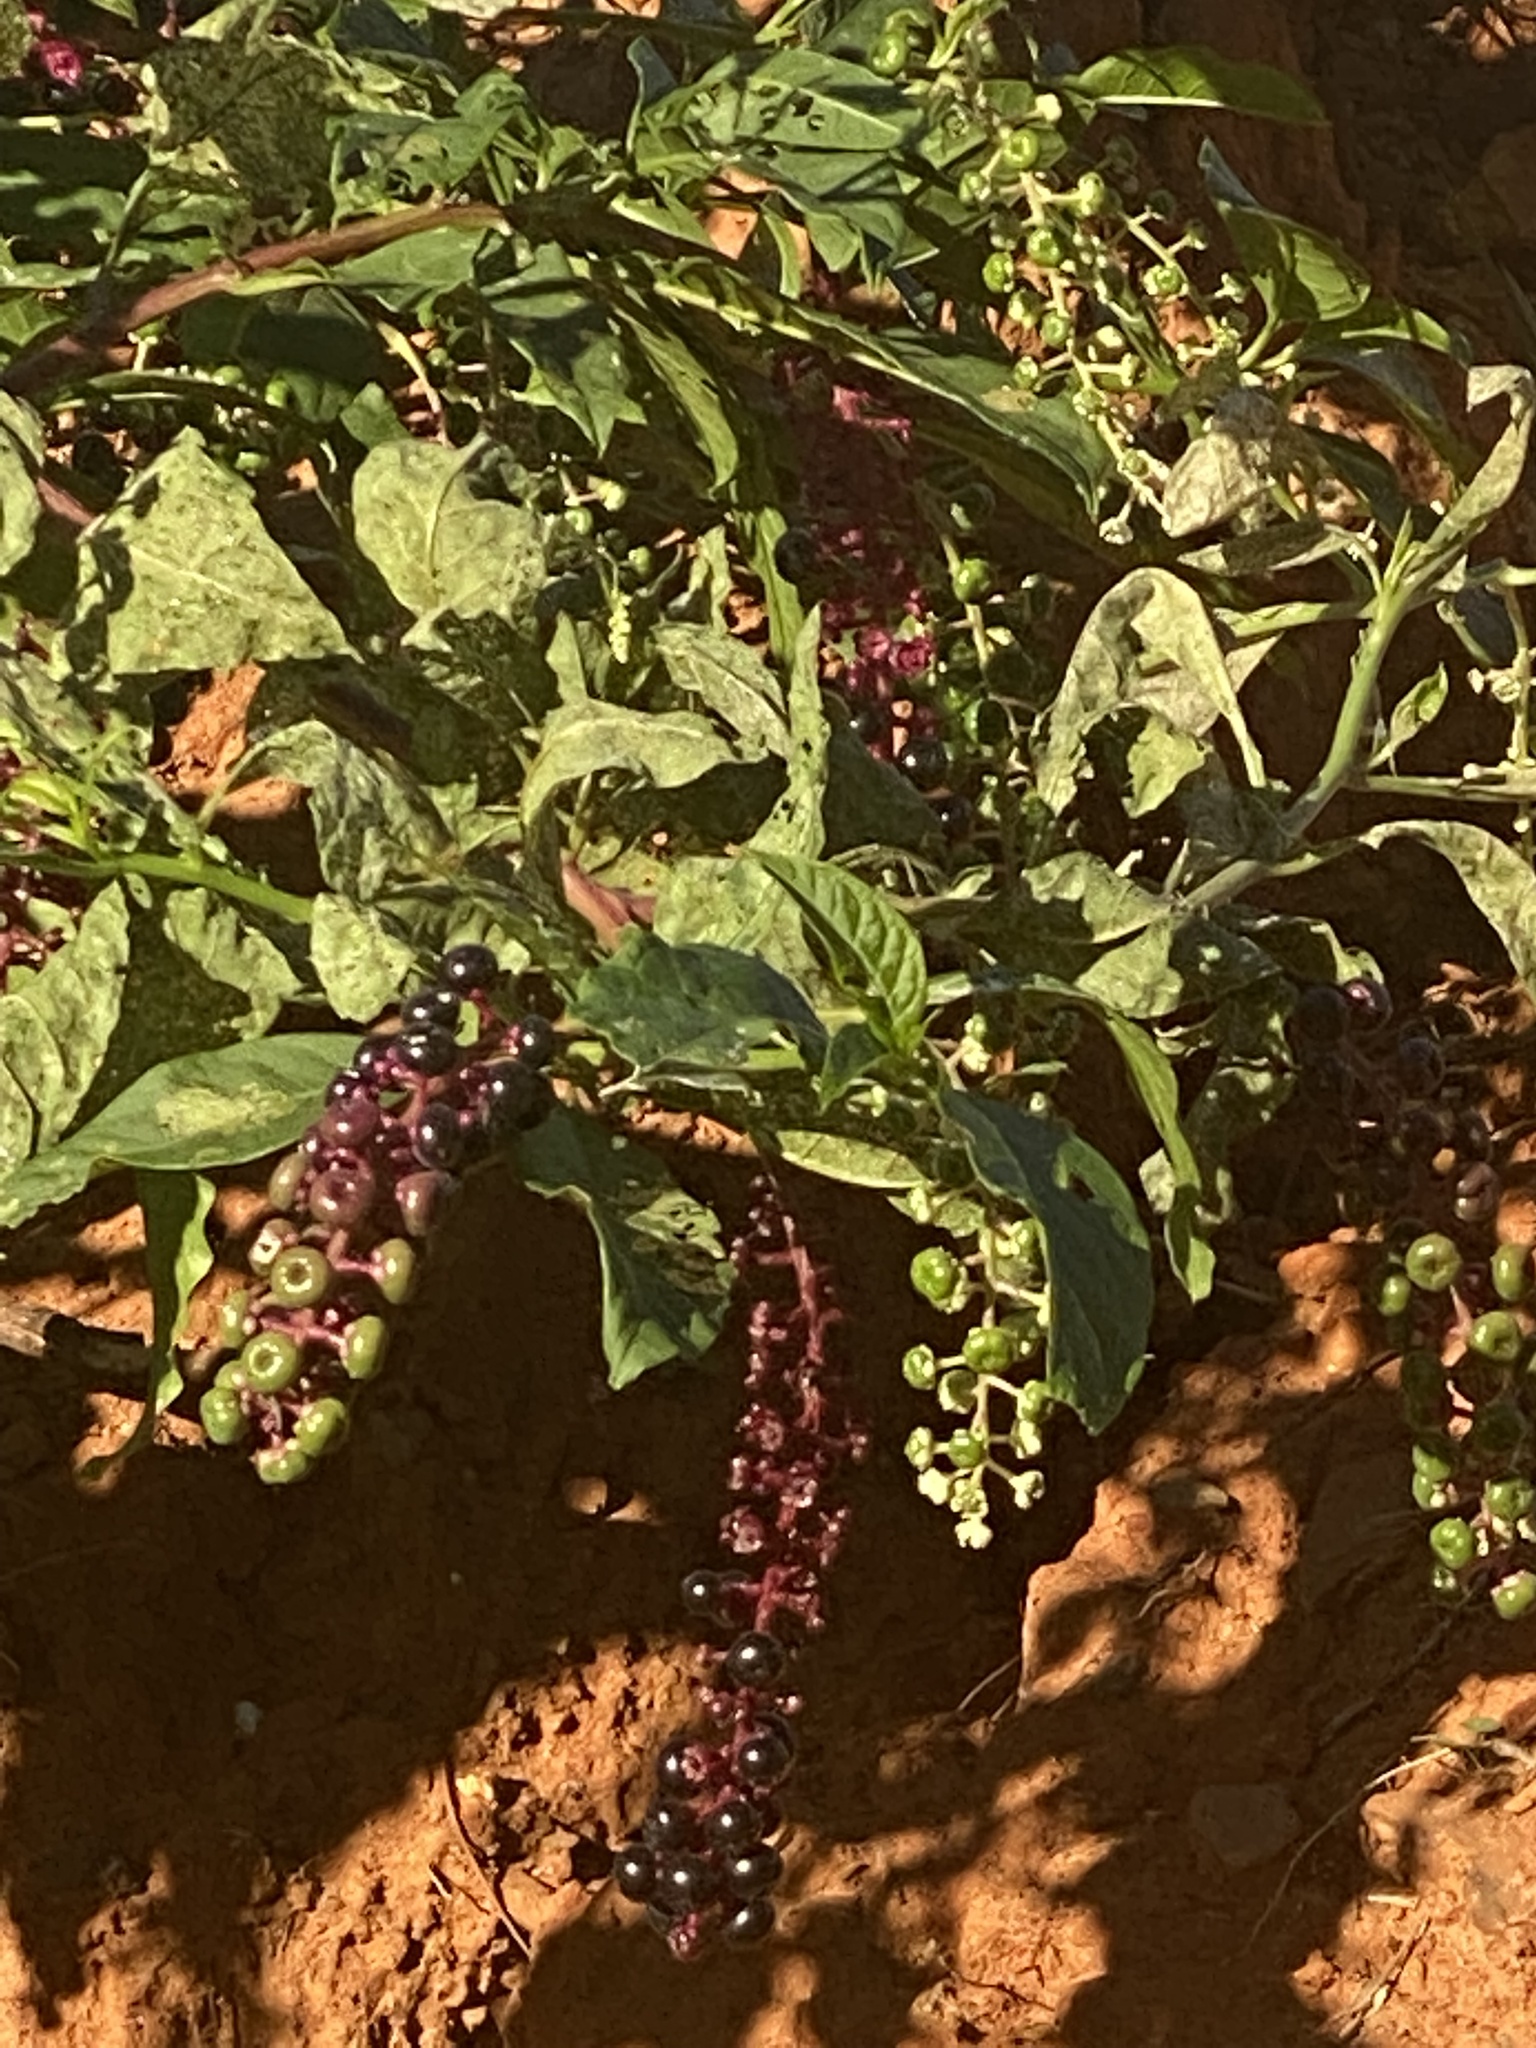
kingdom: Plantae
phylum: Tracheophyta
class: Magnoliopsida
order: Caryophyllales
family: Phytolaccaceae
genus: Phytolacca
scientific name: Phytolacca americana
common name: American pokeweed
